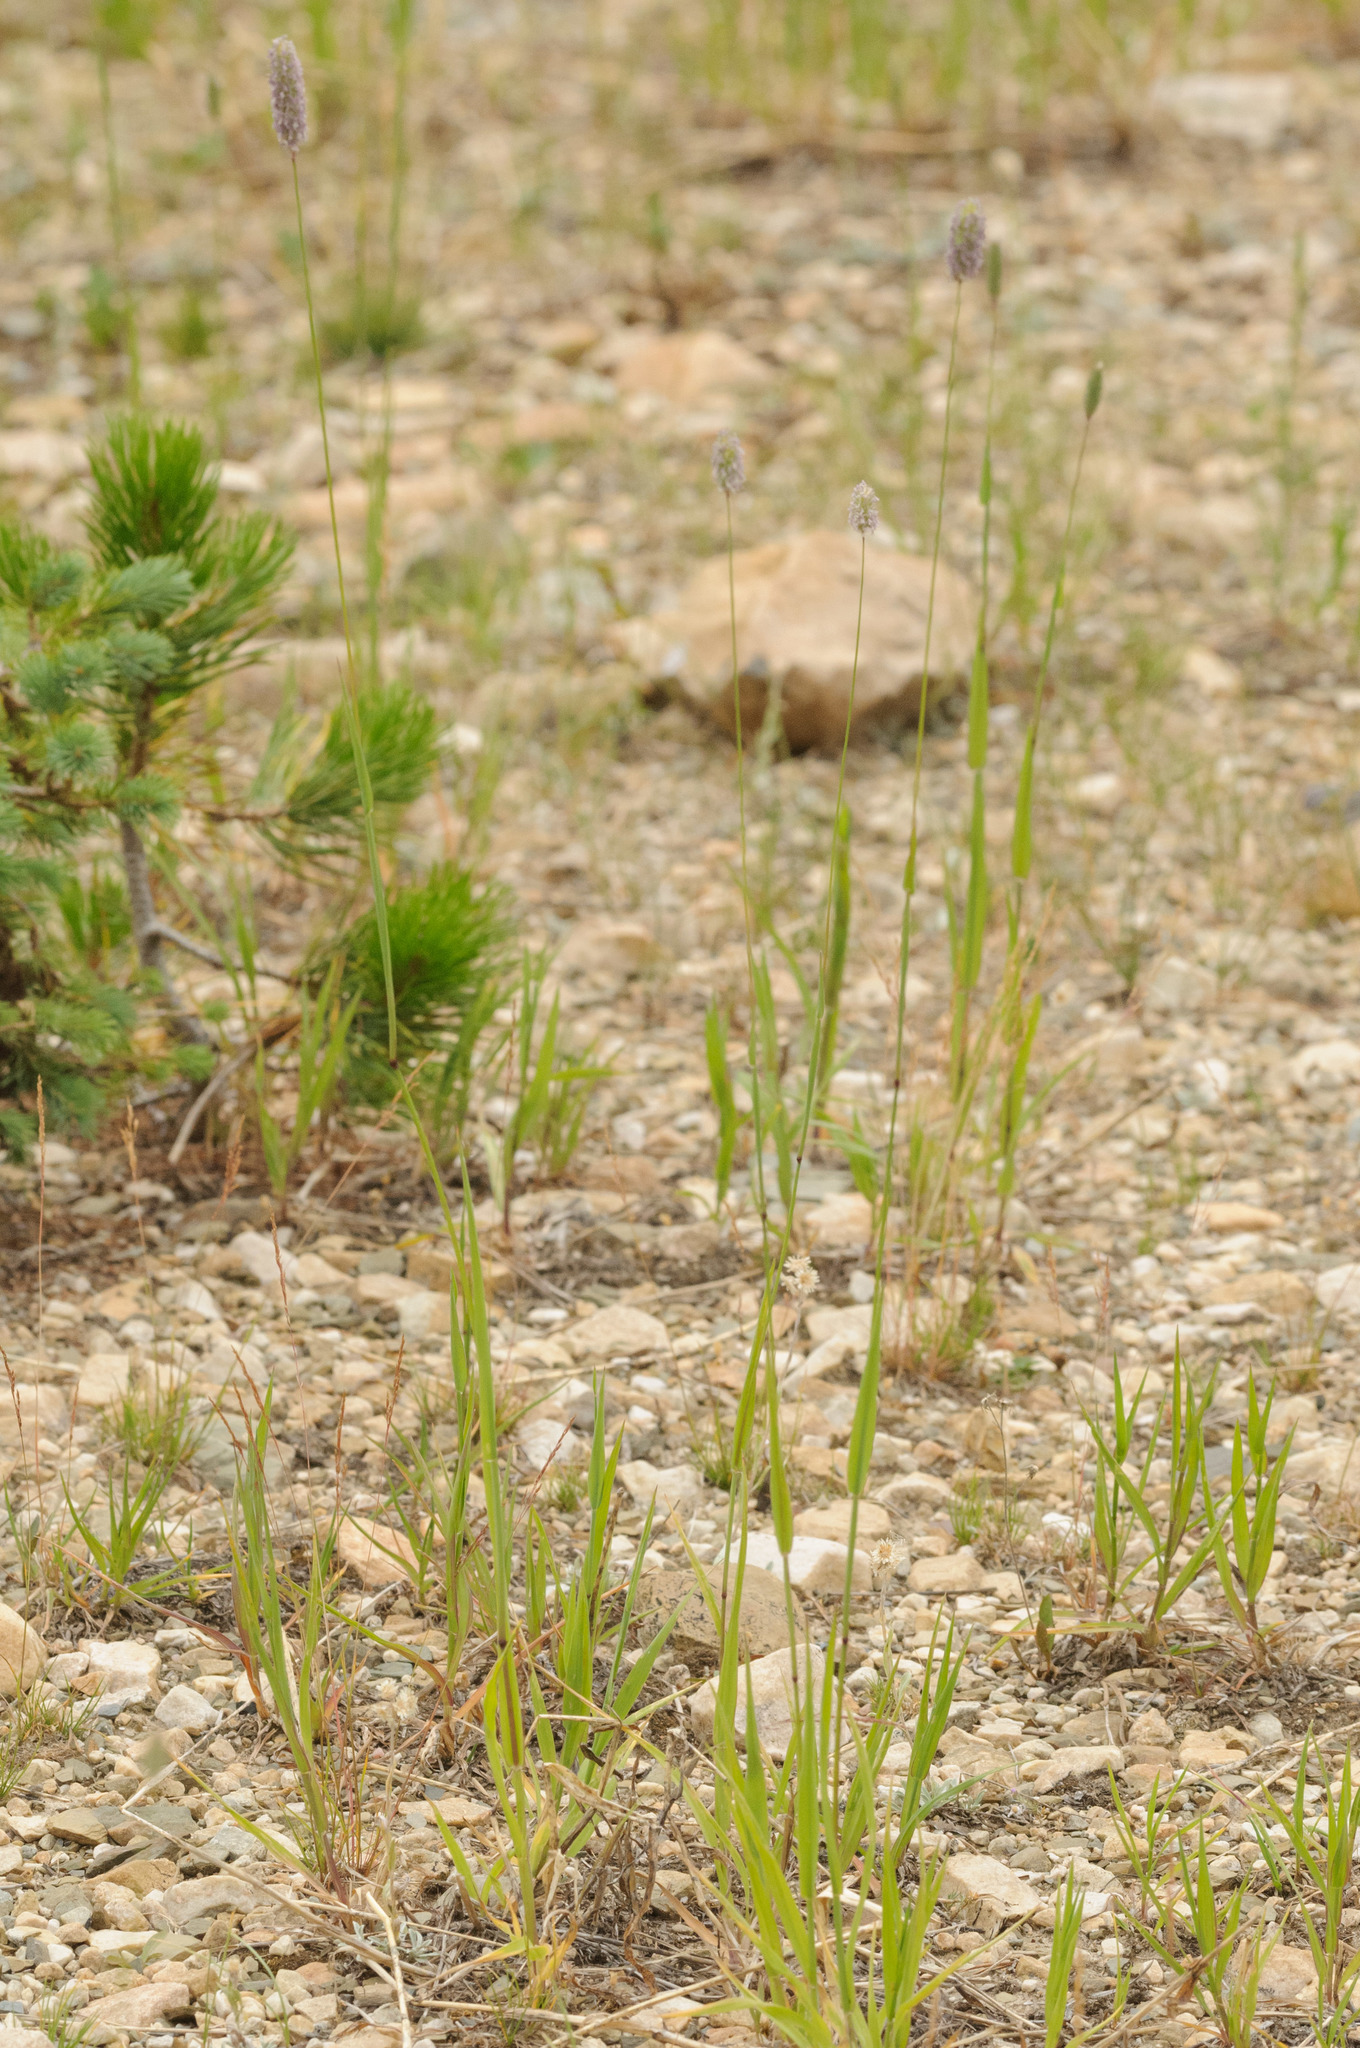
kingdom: Plantae
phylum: Tracheophyta
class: Liliopsida
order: Poales
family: Poaceae
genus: Phleum
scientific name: Phleum alpinum
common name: Alpine cat's-tail
